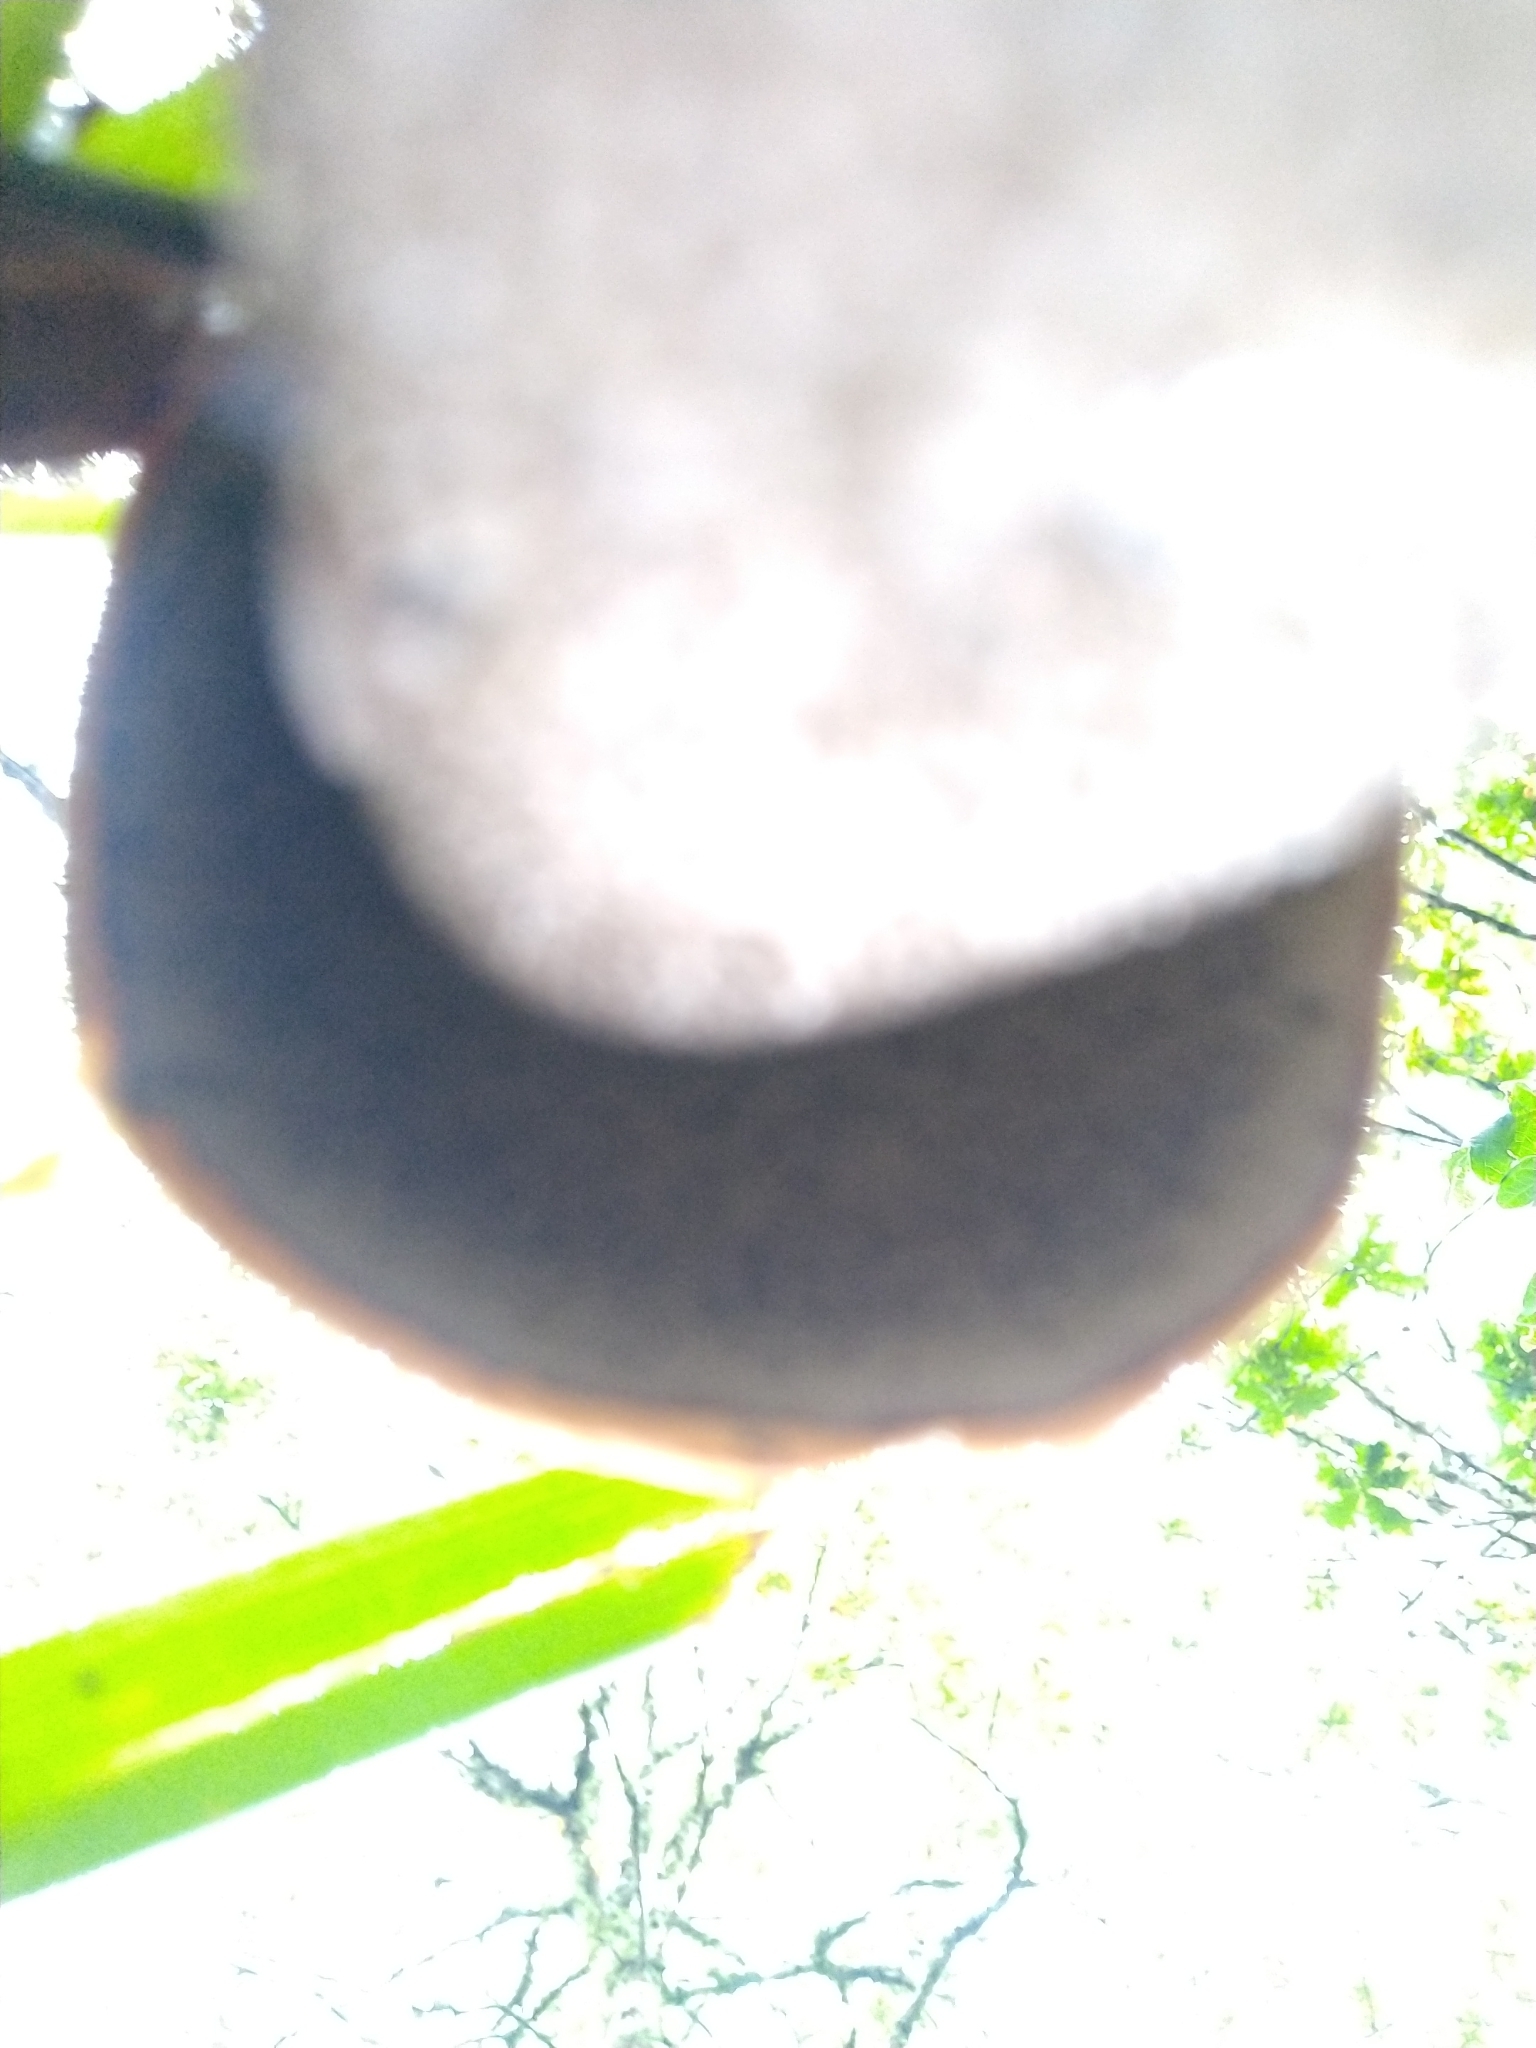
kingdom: Fungi
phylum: Basidiomycota
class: Agaricomycetes
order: Boletales
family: Boletaceae
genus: Leccinum
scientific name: Leccinum versipelle
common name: Orange birch bolete
